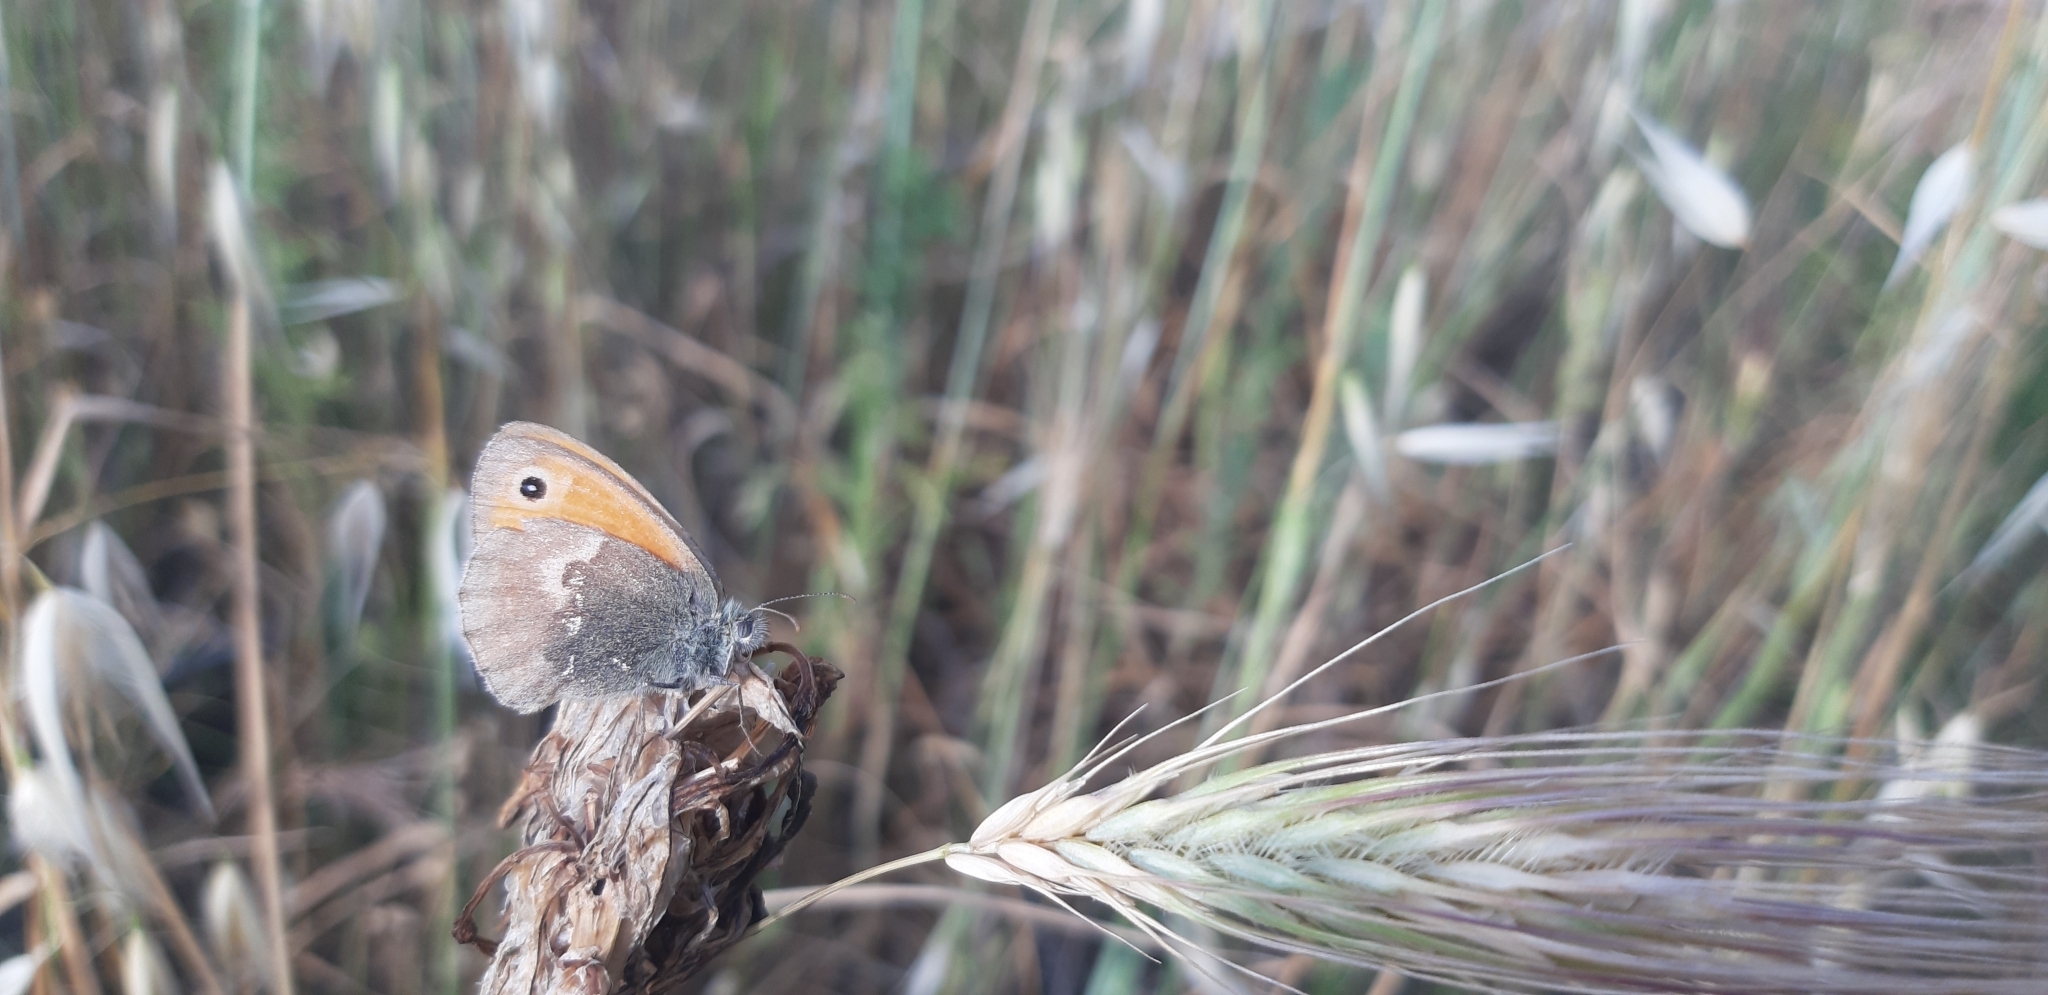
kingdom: Animalia
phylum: Arthropoda
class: Insecta
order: Lepidoptera
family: Nymphalidae
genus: Coenonympha
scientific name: Coenonympha pamphilus
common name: Small heath
